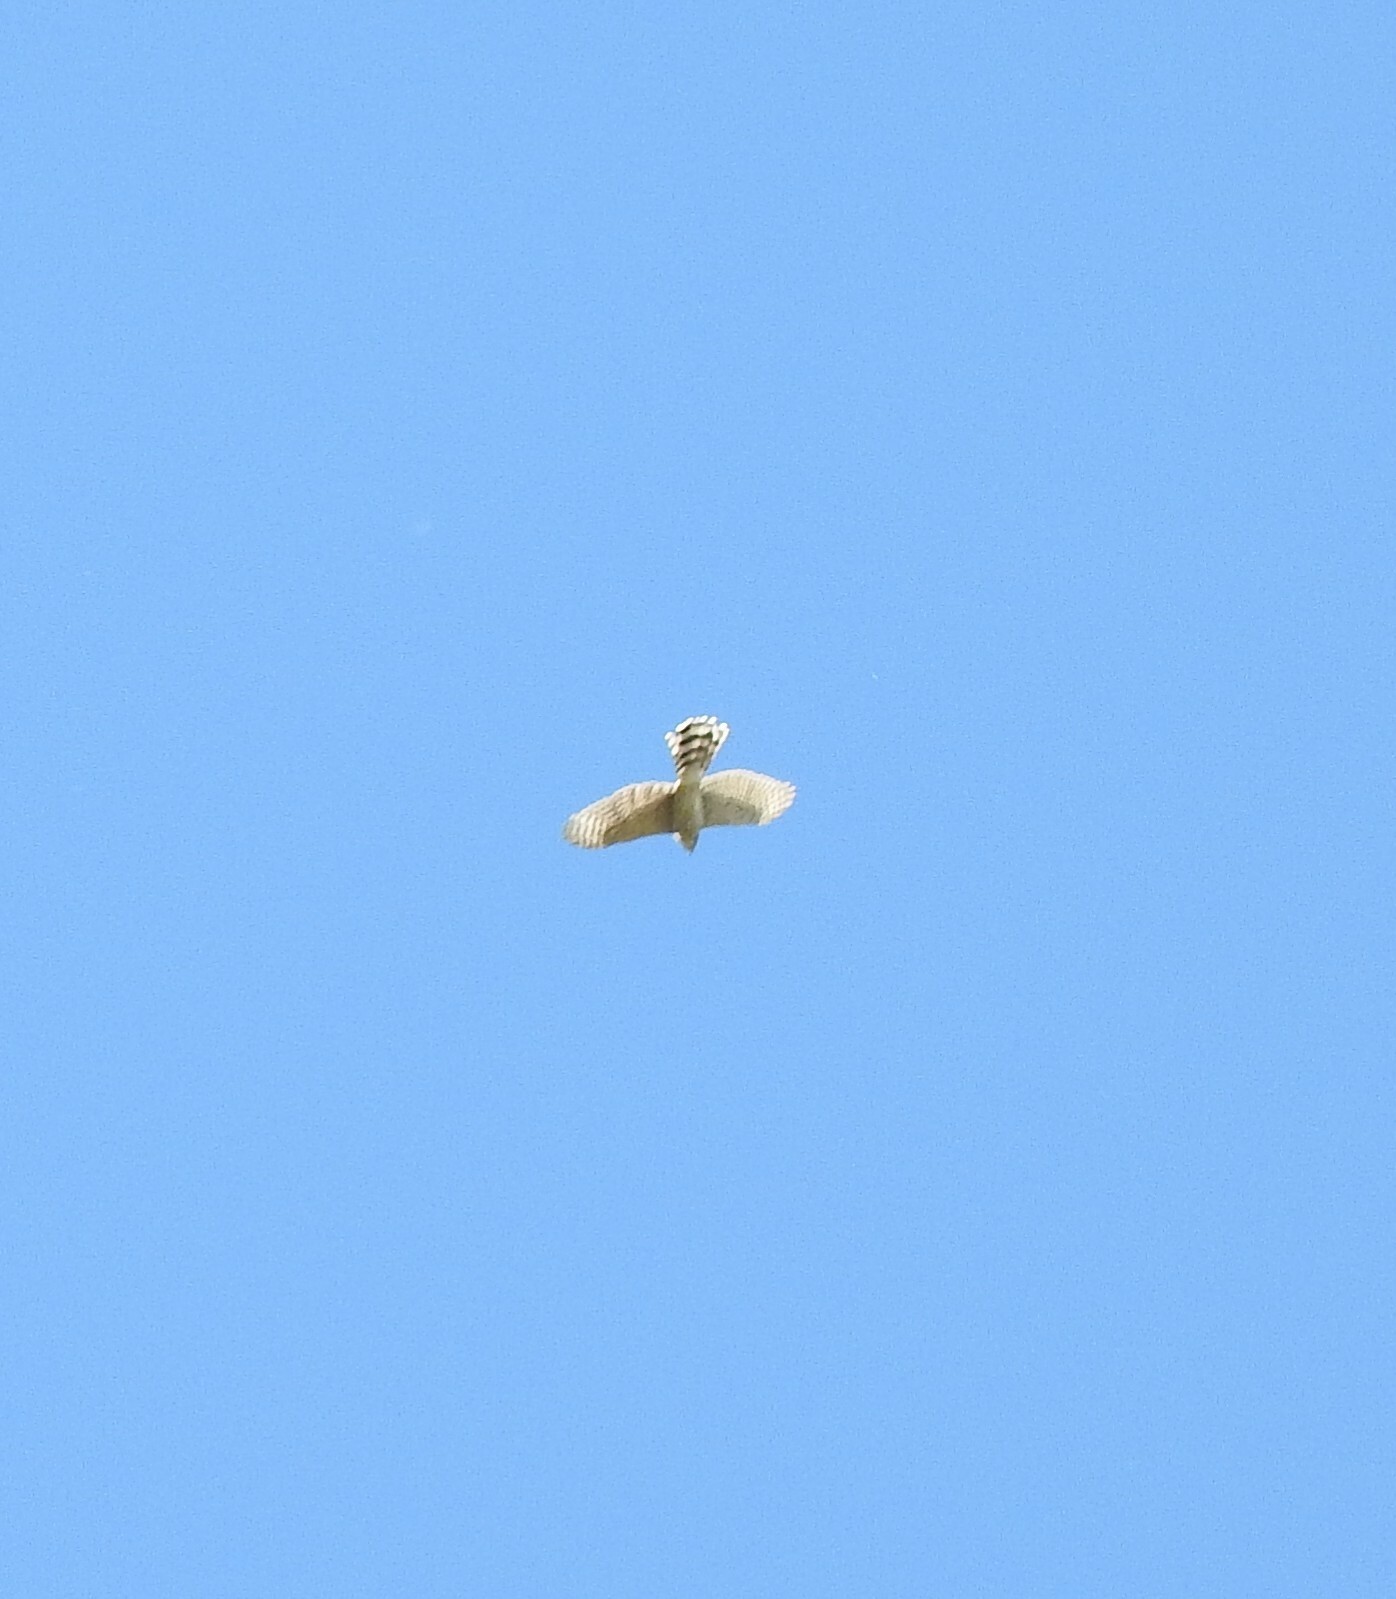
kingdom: Animalia
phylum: Chordata
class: Aves
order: Accipitriformes
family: Accipitridae
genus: Accipiter
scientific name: Accipiter cooperii
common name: Cooper's hawk
